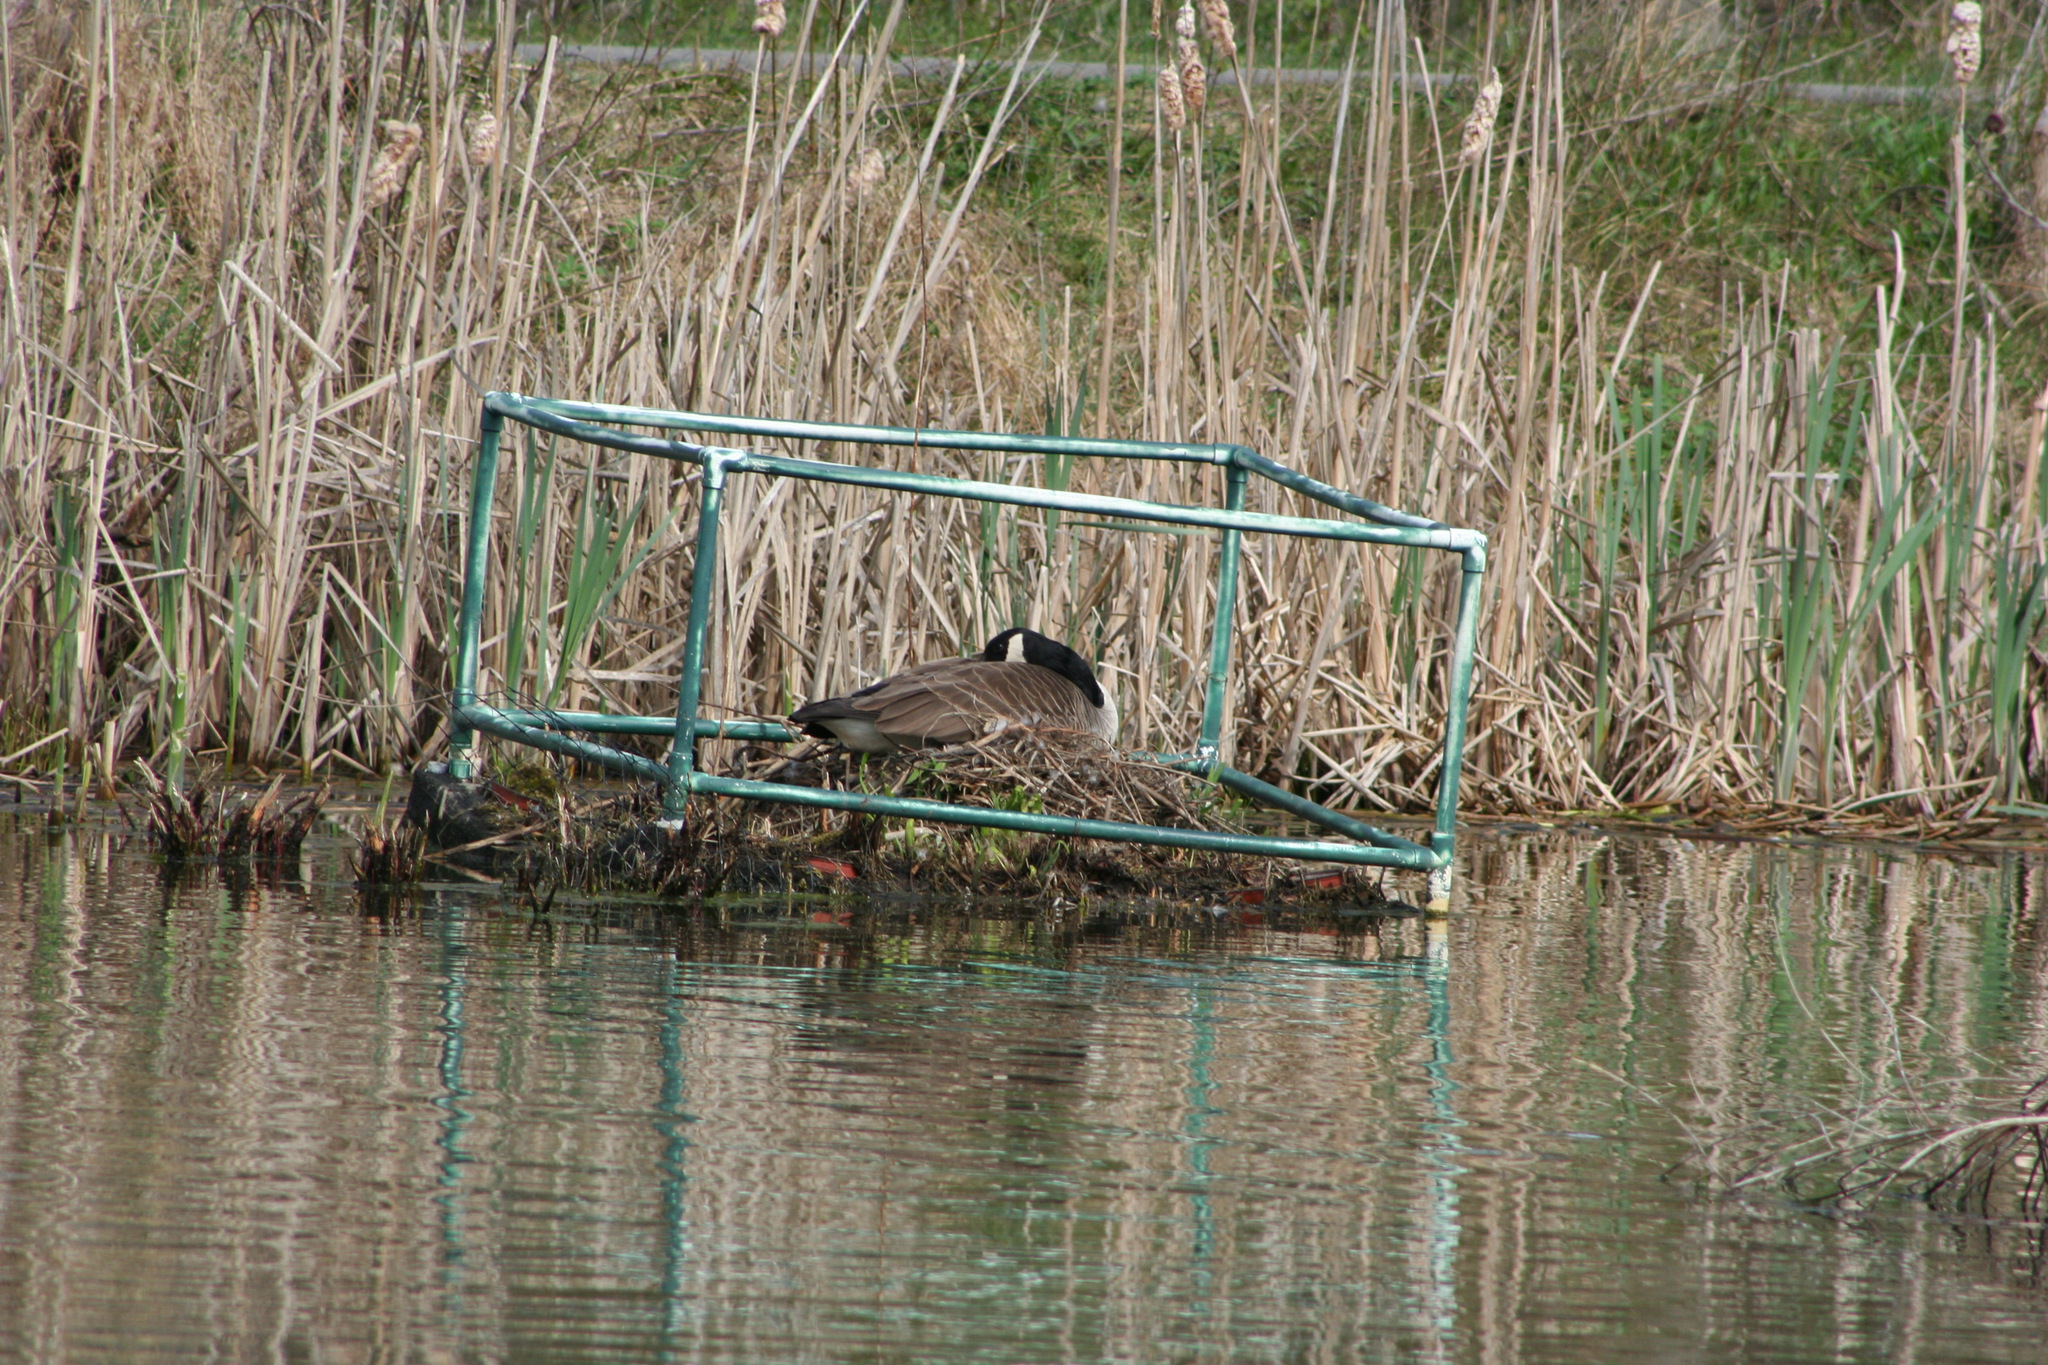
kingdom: Animalia
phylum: Chordata
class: Aves
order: Anseriformes
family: Anatidae
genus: Branta
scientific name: Branta canadensis
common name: Canada goose
